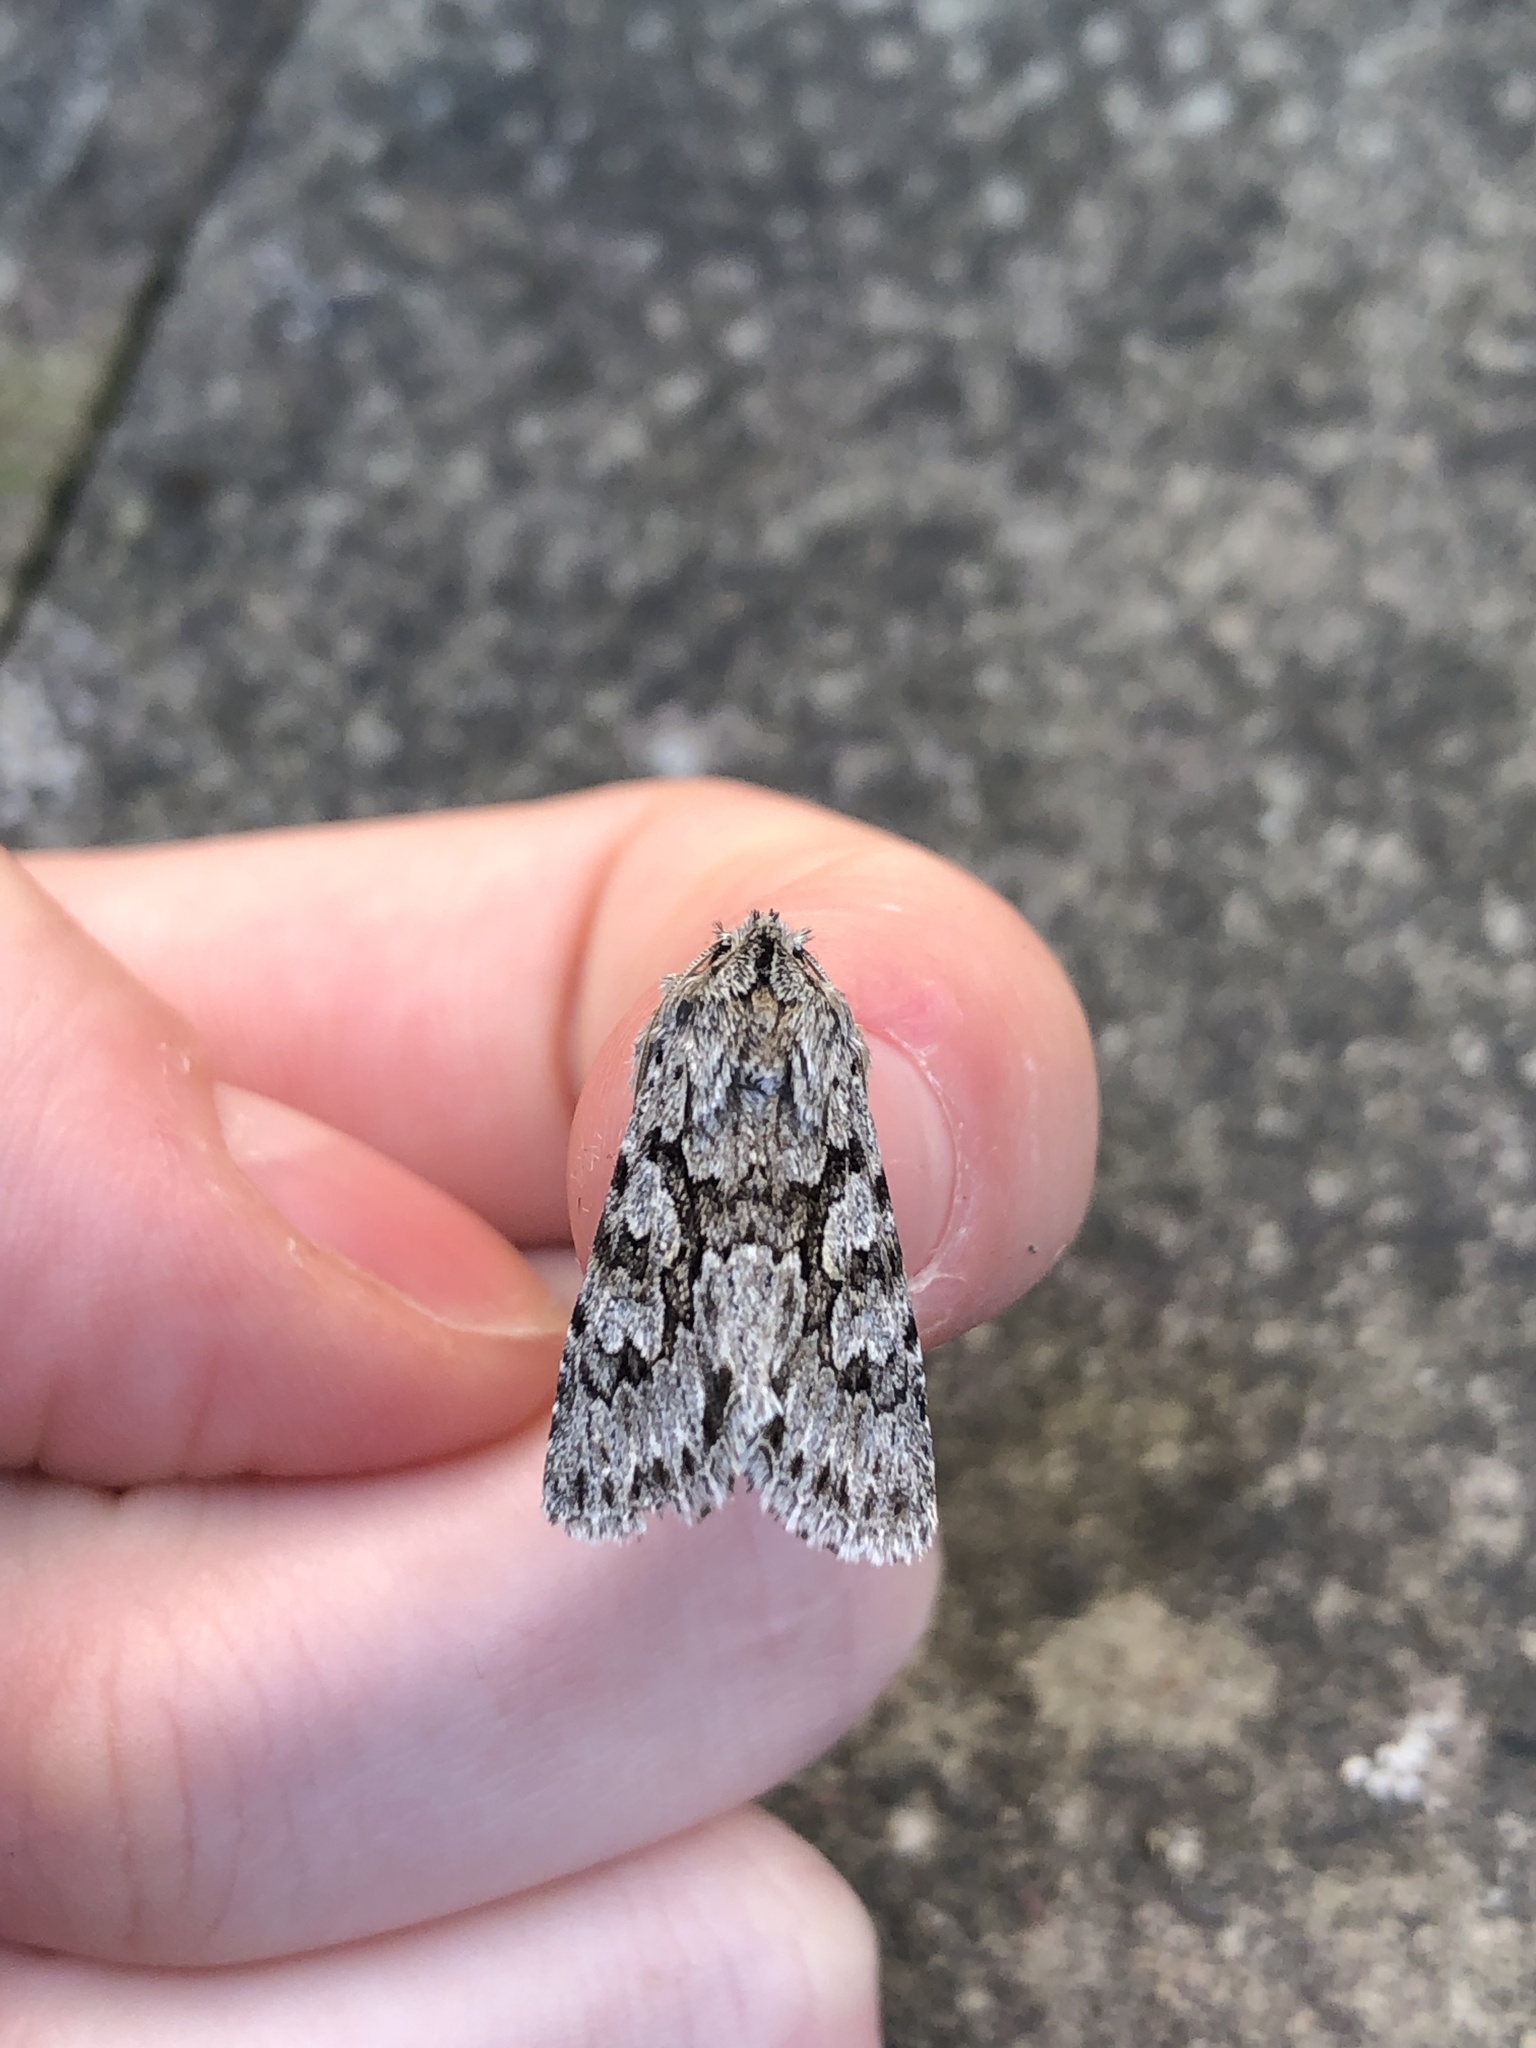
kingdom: Animalia
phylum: Arthropoda
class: Insecta
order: Lepidoptera
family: Noctuidae
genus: Xylocampa
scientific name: Xylocampa areola
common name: Early grey
